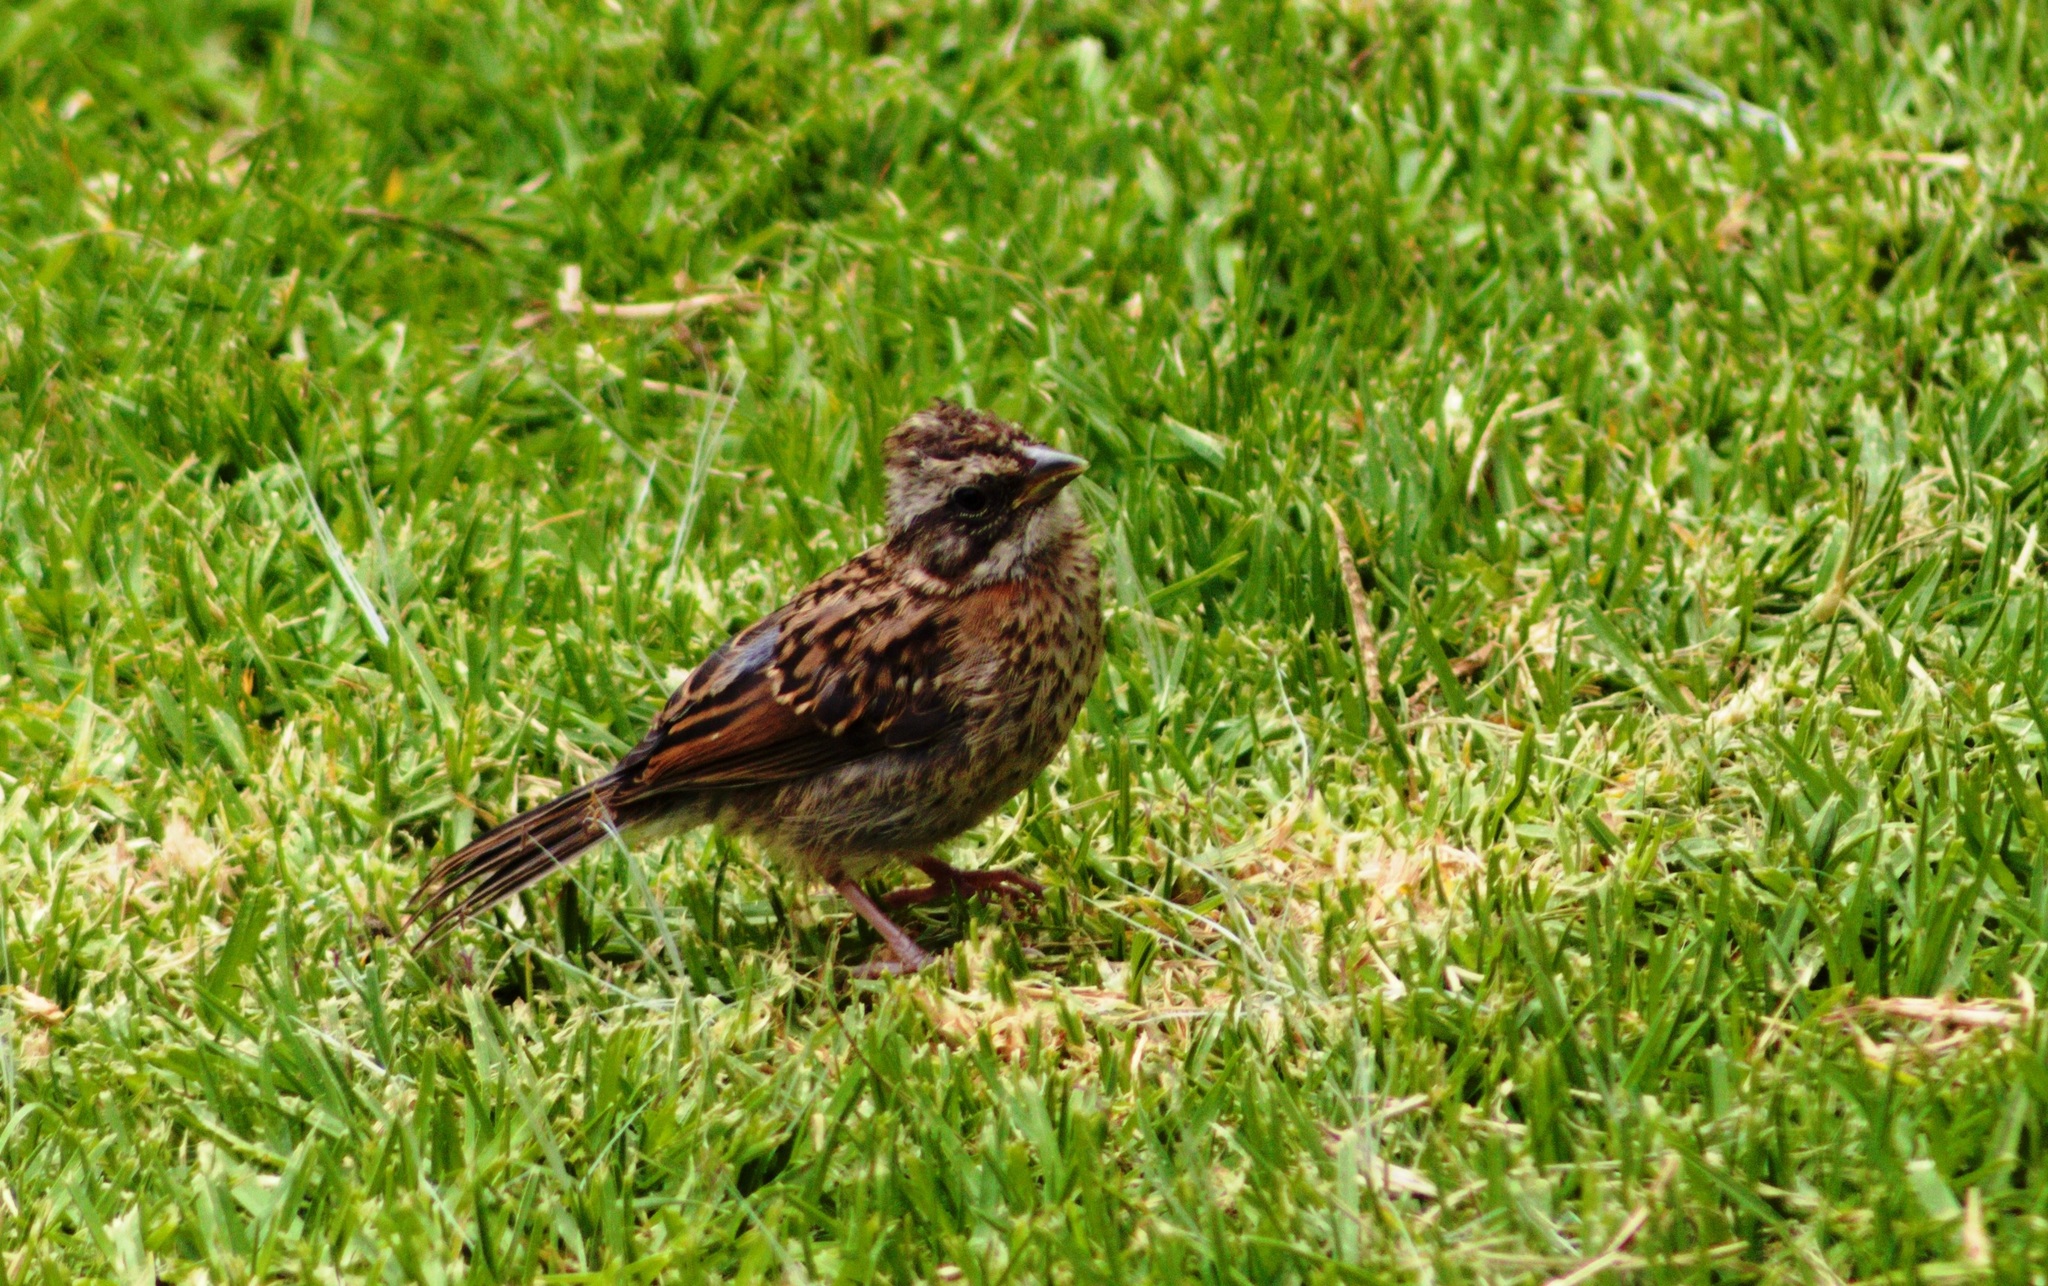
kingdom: Animalia
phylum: Chordata
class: Aves
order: Passeriformes
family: Passerellidae
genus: Zonotrichia
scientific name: Zonotrichia capensis
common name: Rufous-collared sparrow
